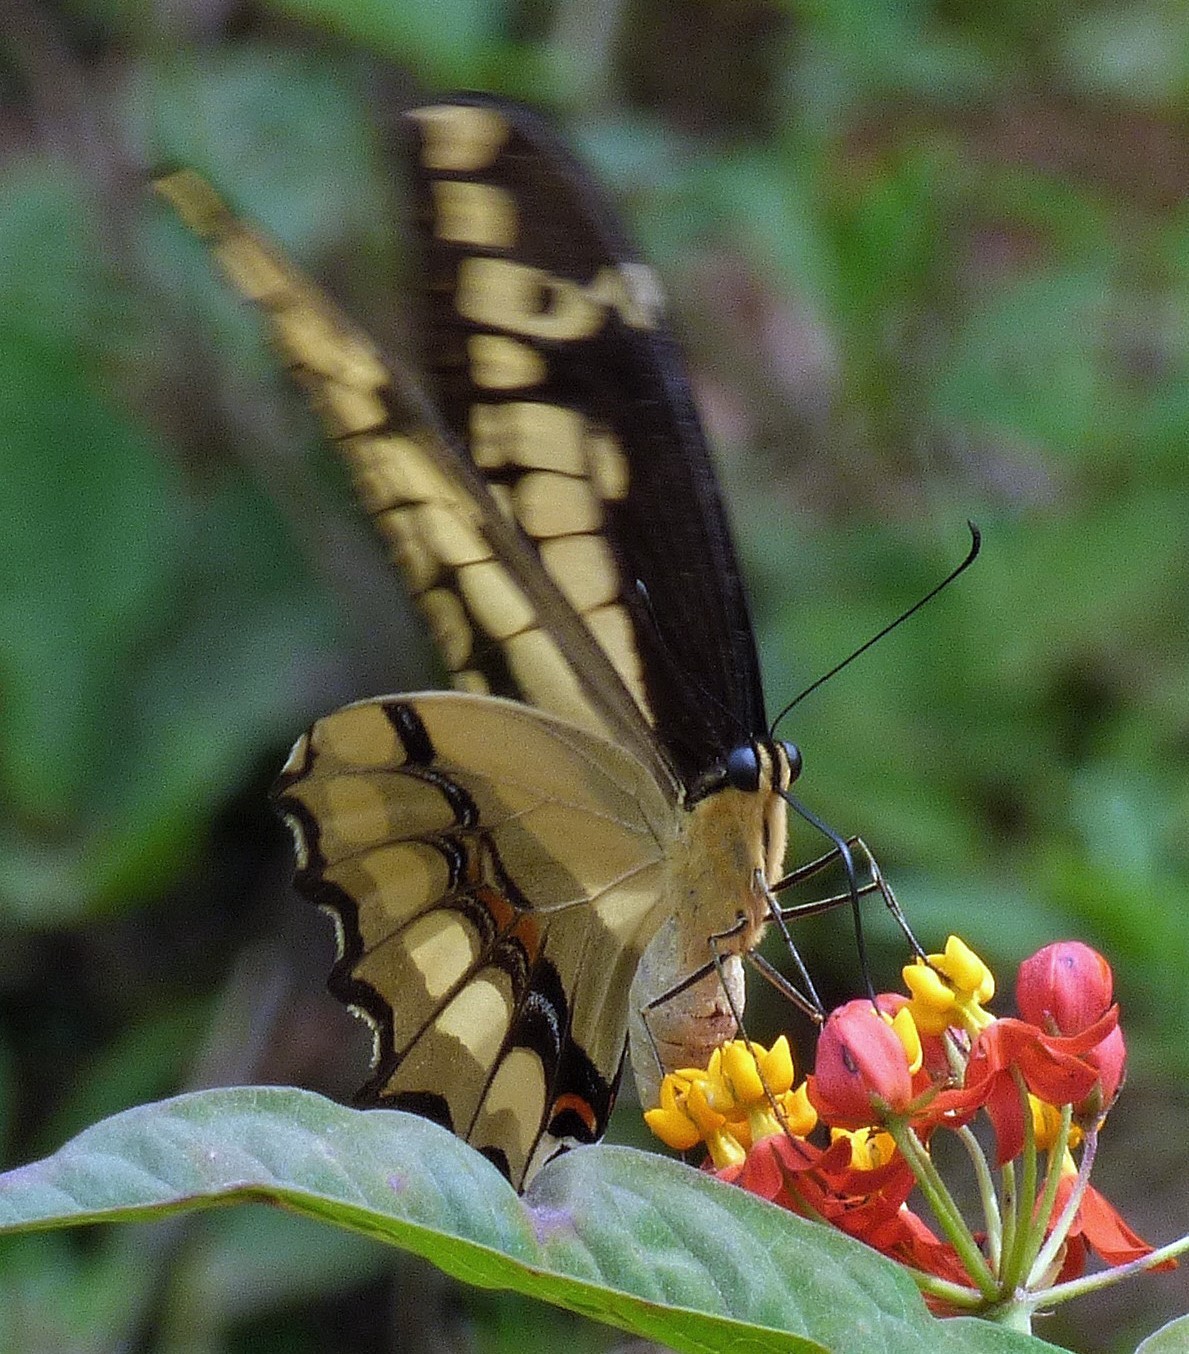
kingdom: Animalia
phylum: Arthropoda
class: Insecta
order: Lepidoptera
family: Papilionidae
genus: Papilio
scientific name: Papilio thoas
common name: King swallowtail
